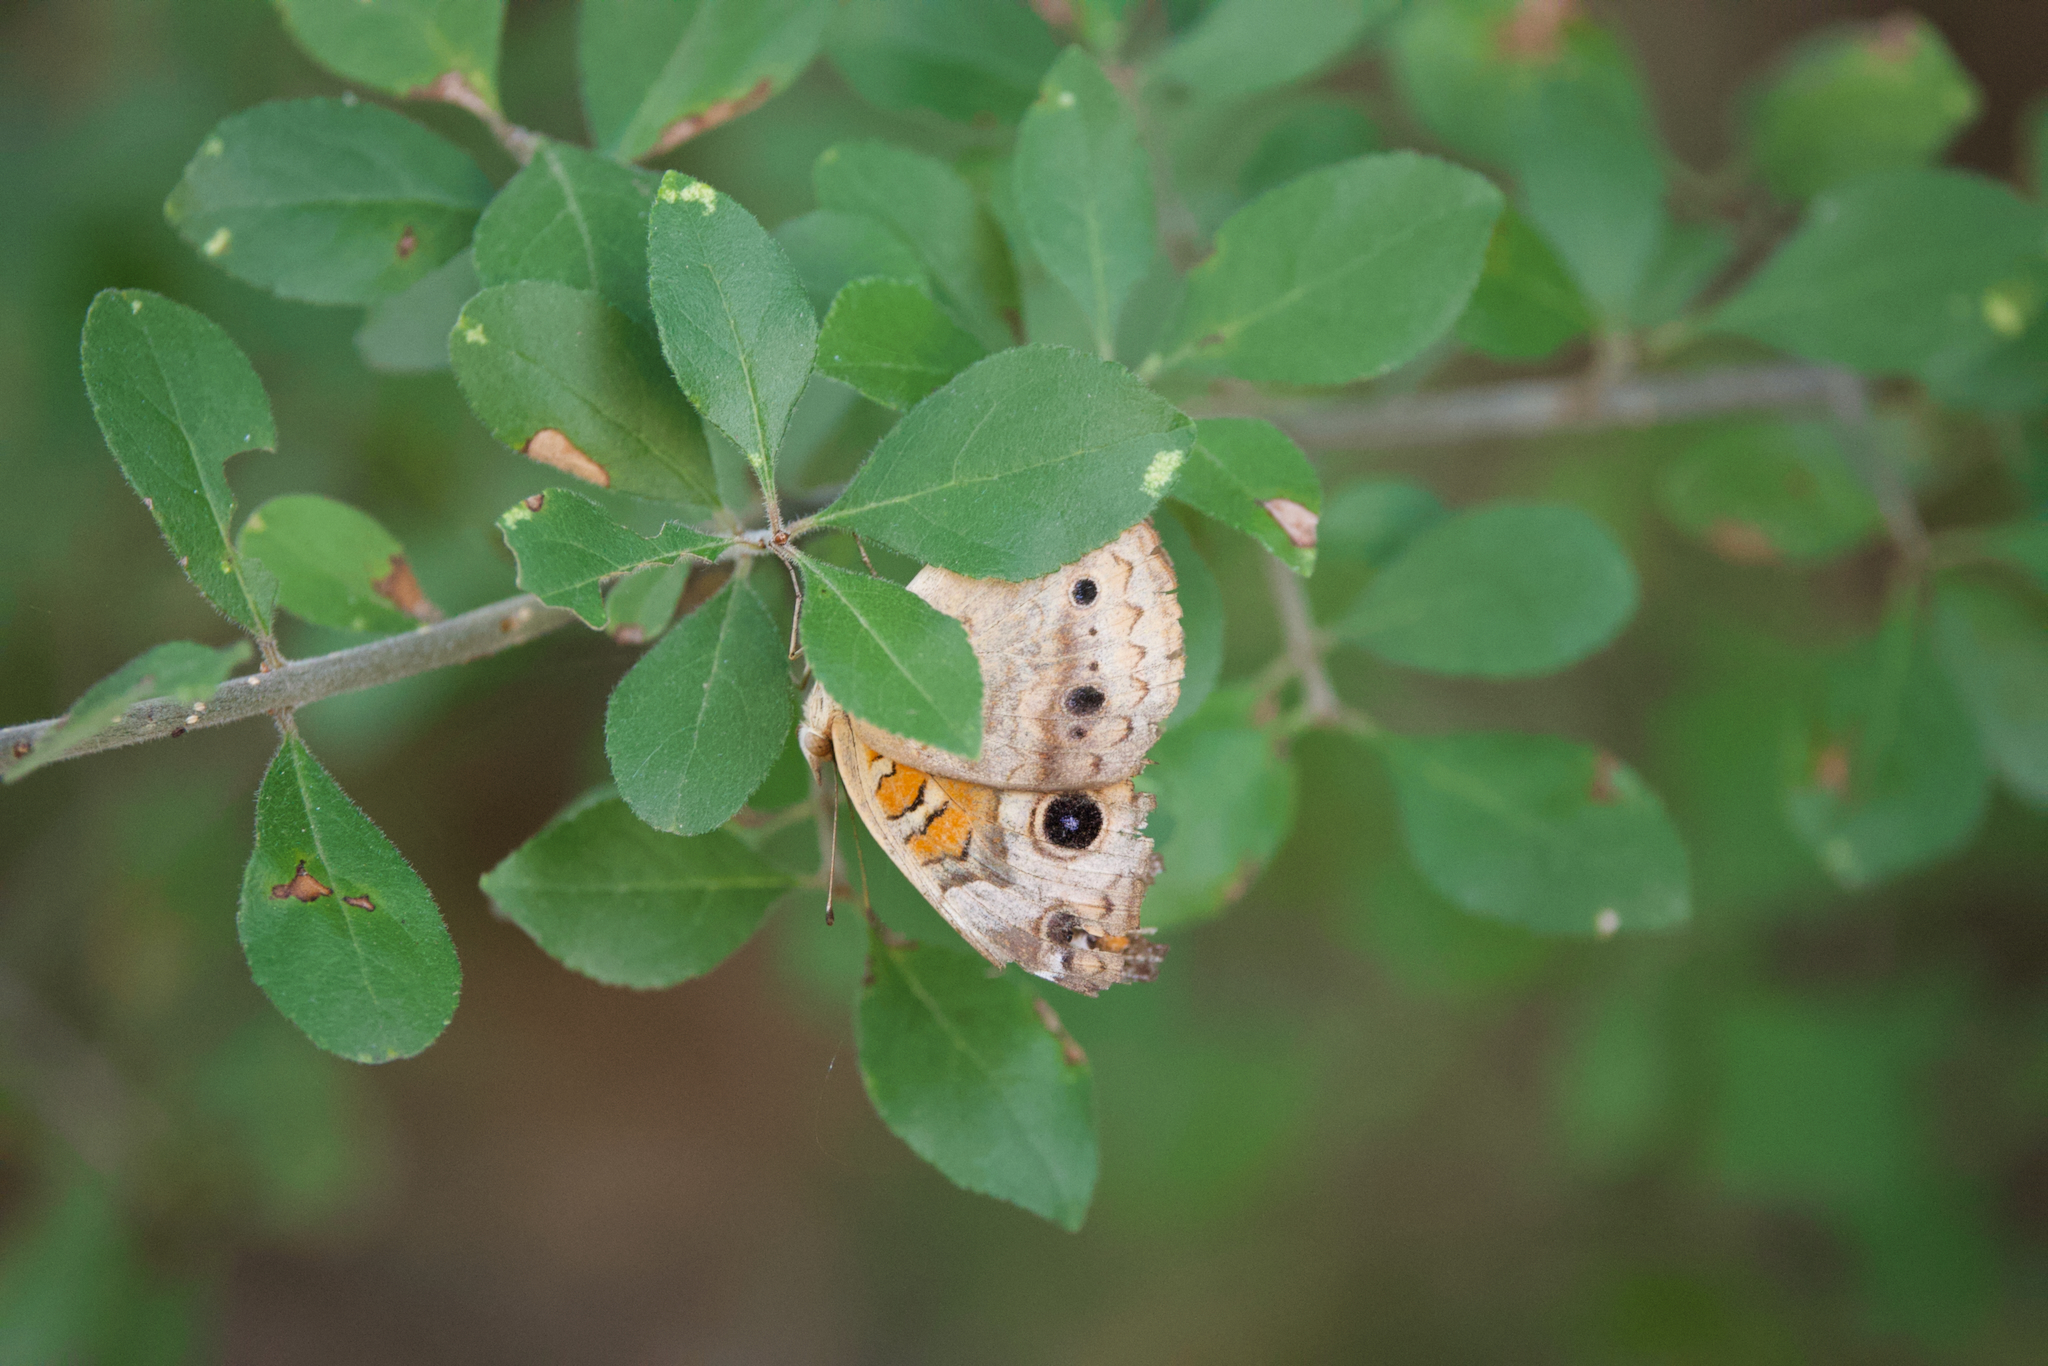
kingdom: Animalia
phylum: Arthropoda
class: Insecta
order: Lepidoptera
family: Nymphalidae
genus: Junonia
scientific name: Junonia coenia
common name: Common buckeye
